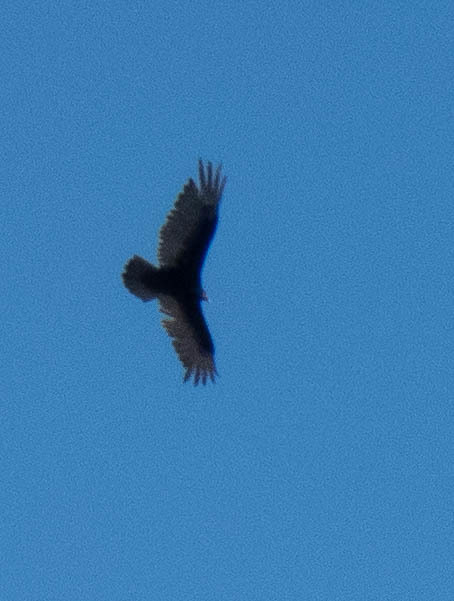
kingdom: Animalia
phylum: Chordata
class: Aves
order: Accipitriformes
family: Cathartidae
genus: Cathartes
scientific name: Cathartes aura
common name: Turkey vulture
